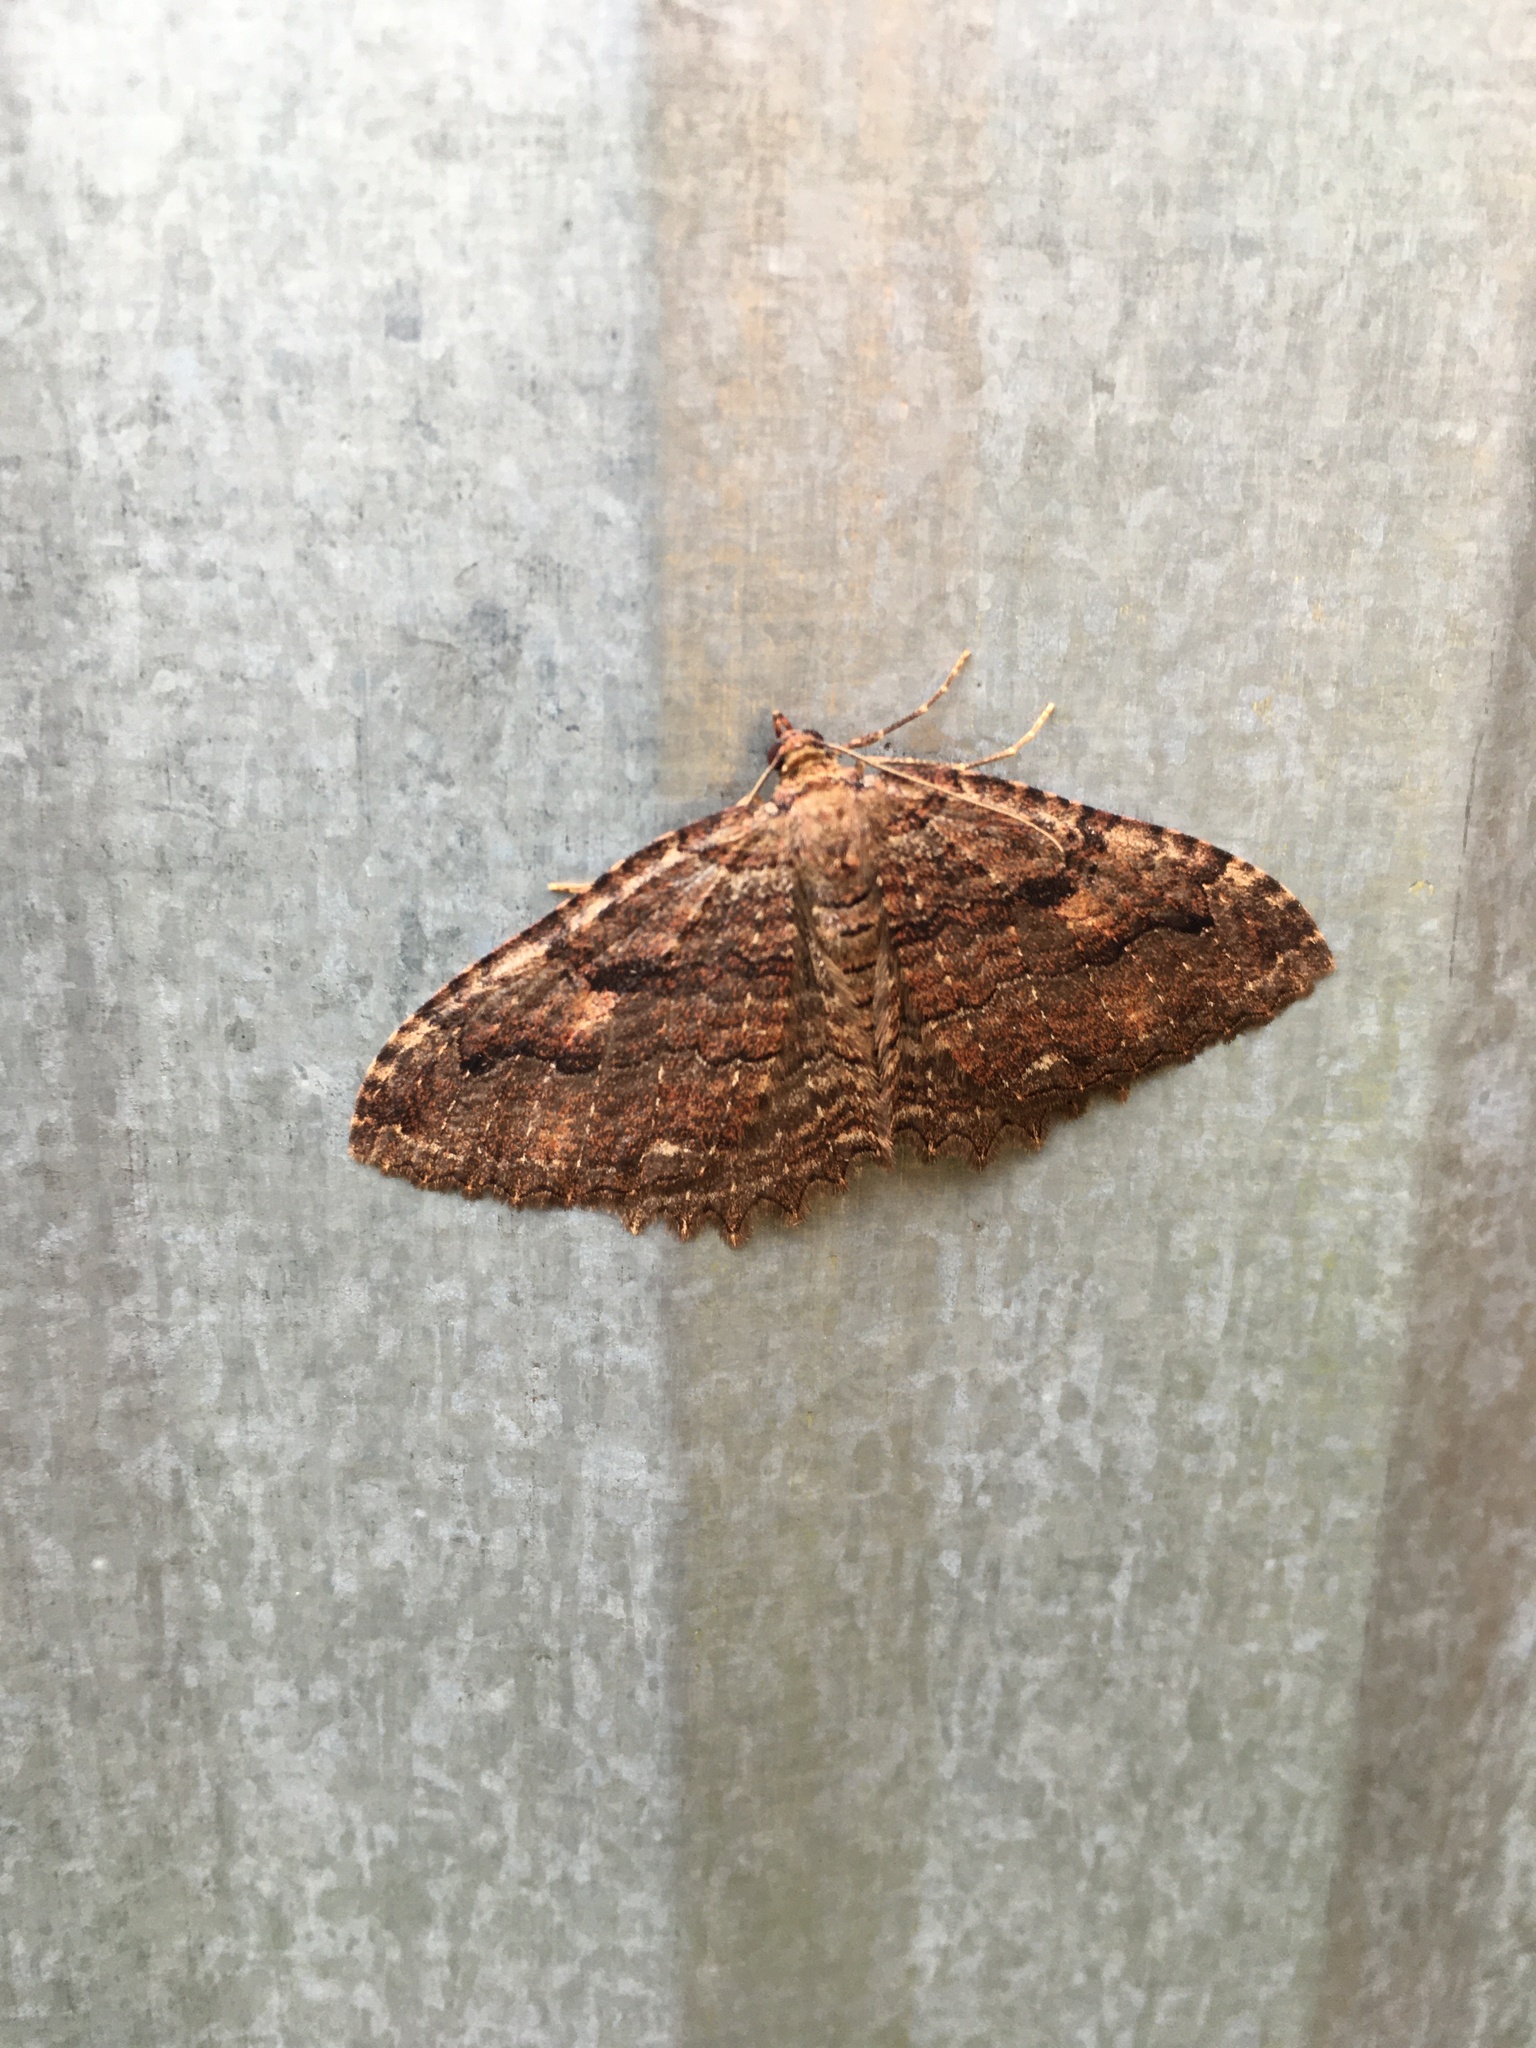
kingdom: Animalia
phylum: Arthropoda
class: Insecta
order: Lepidoptera
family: Geometridae
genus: Triphosa
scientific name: Triphosa haesitata
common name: Tissue moth
